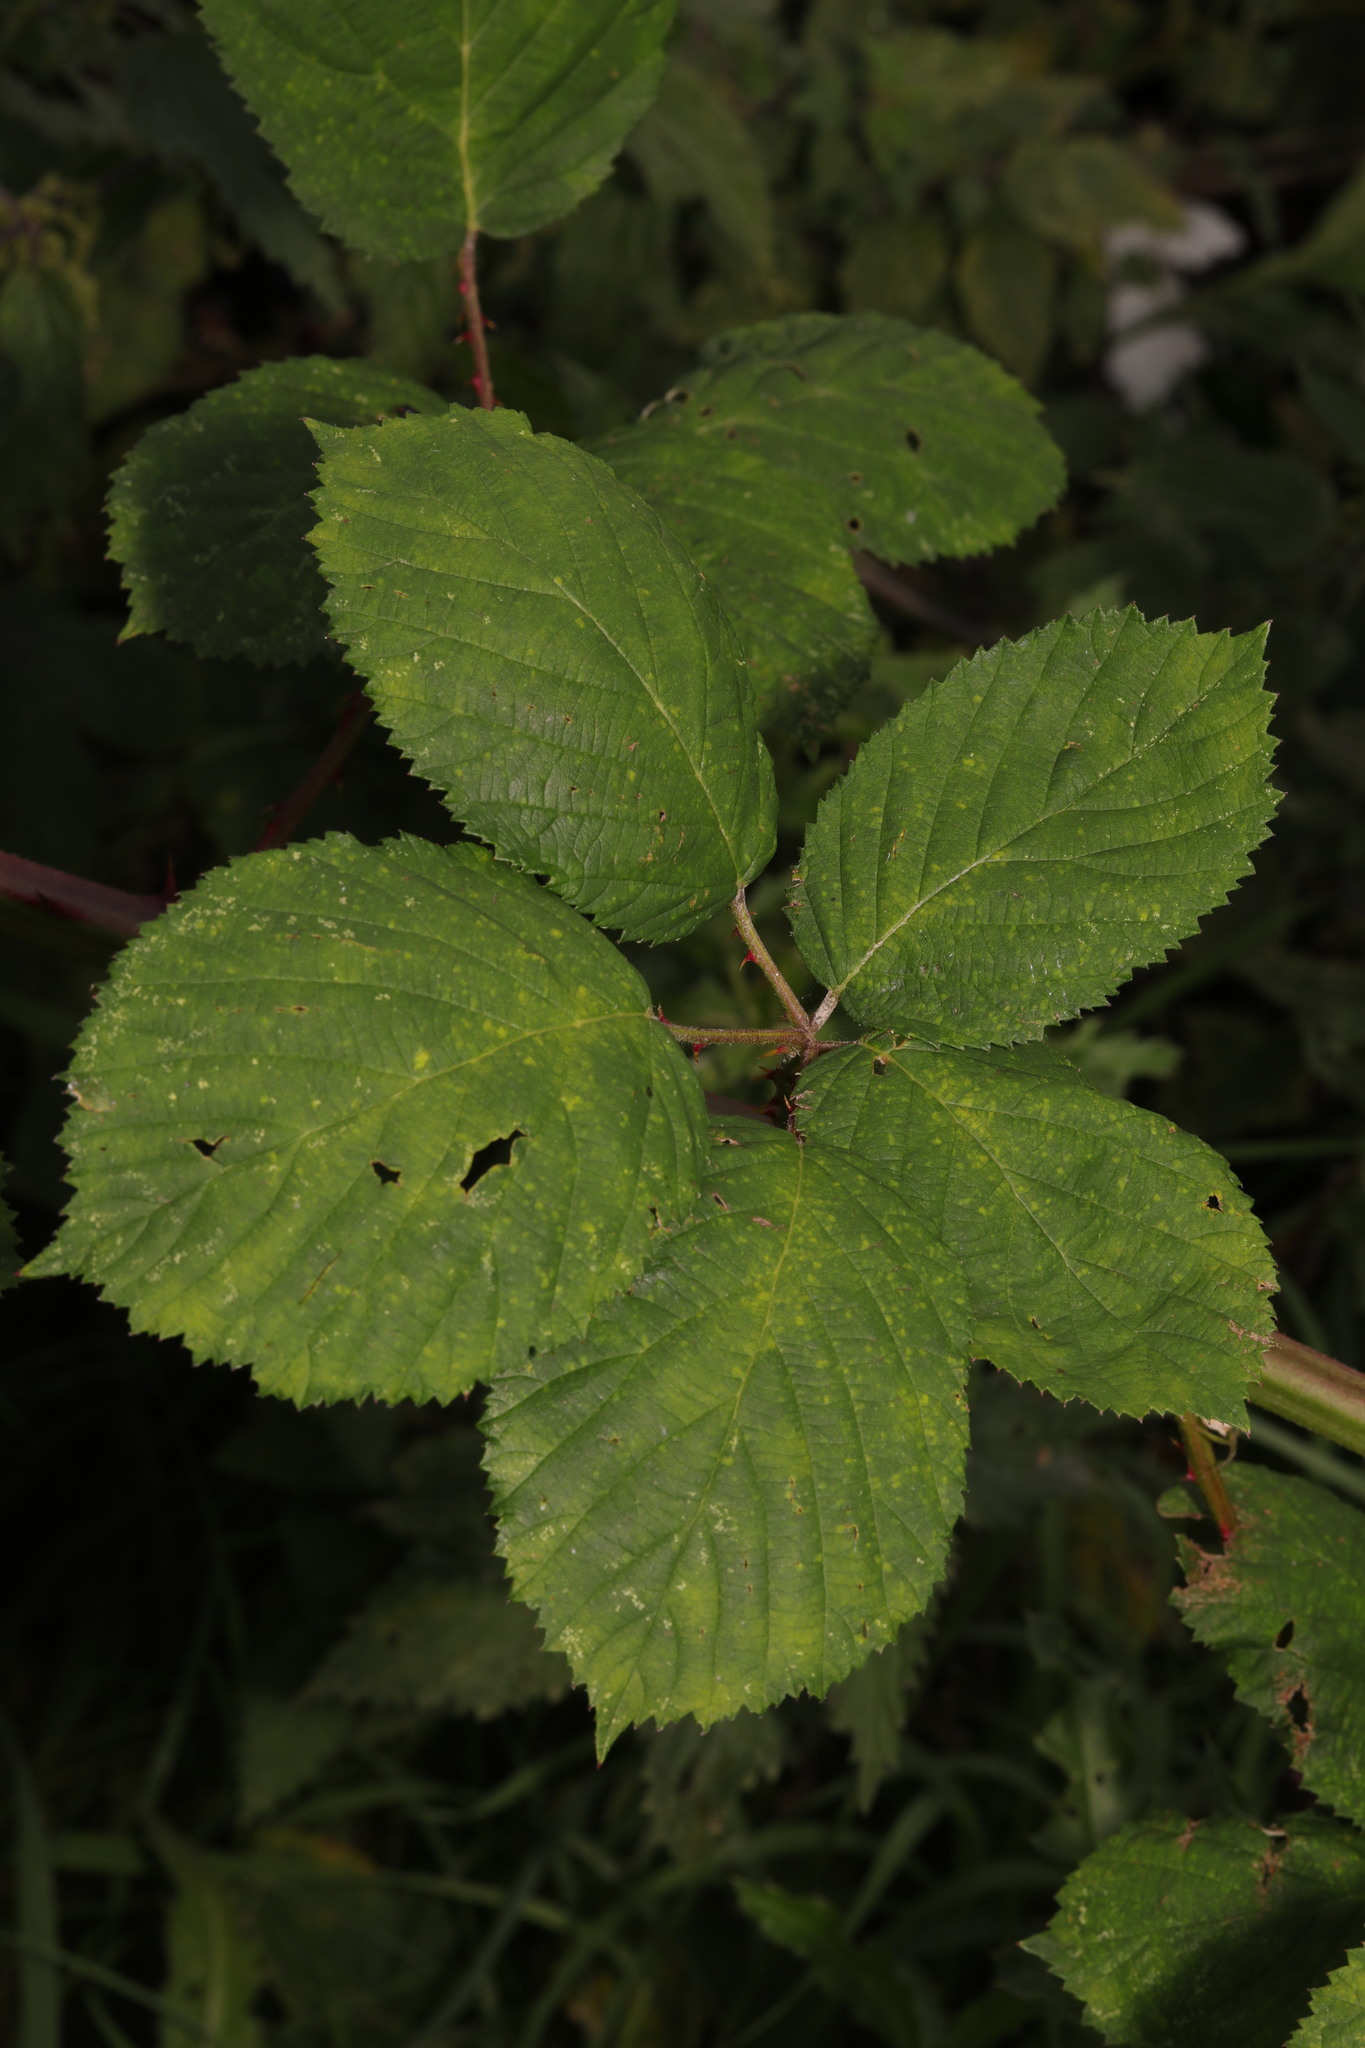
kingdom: Plantae
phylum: Tracheophyta
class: Magnoliopsida
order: Rosales
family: Rosaceae
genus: Rubus
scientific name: Rubus armeniacus
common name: Himalayan blackberry
